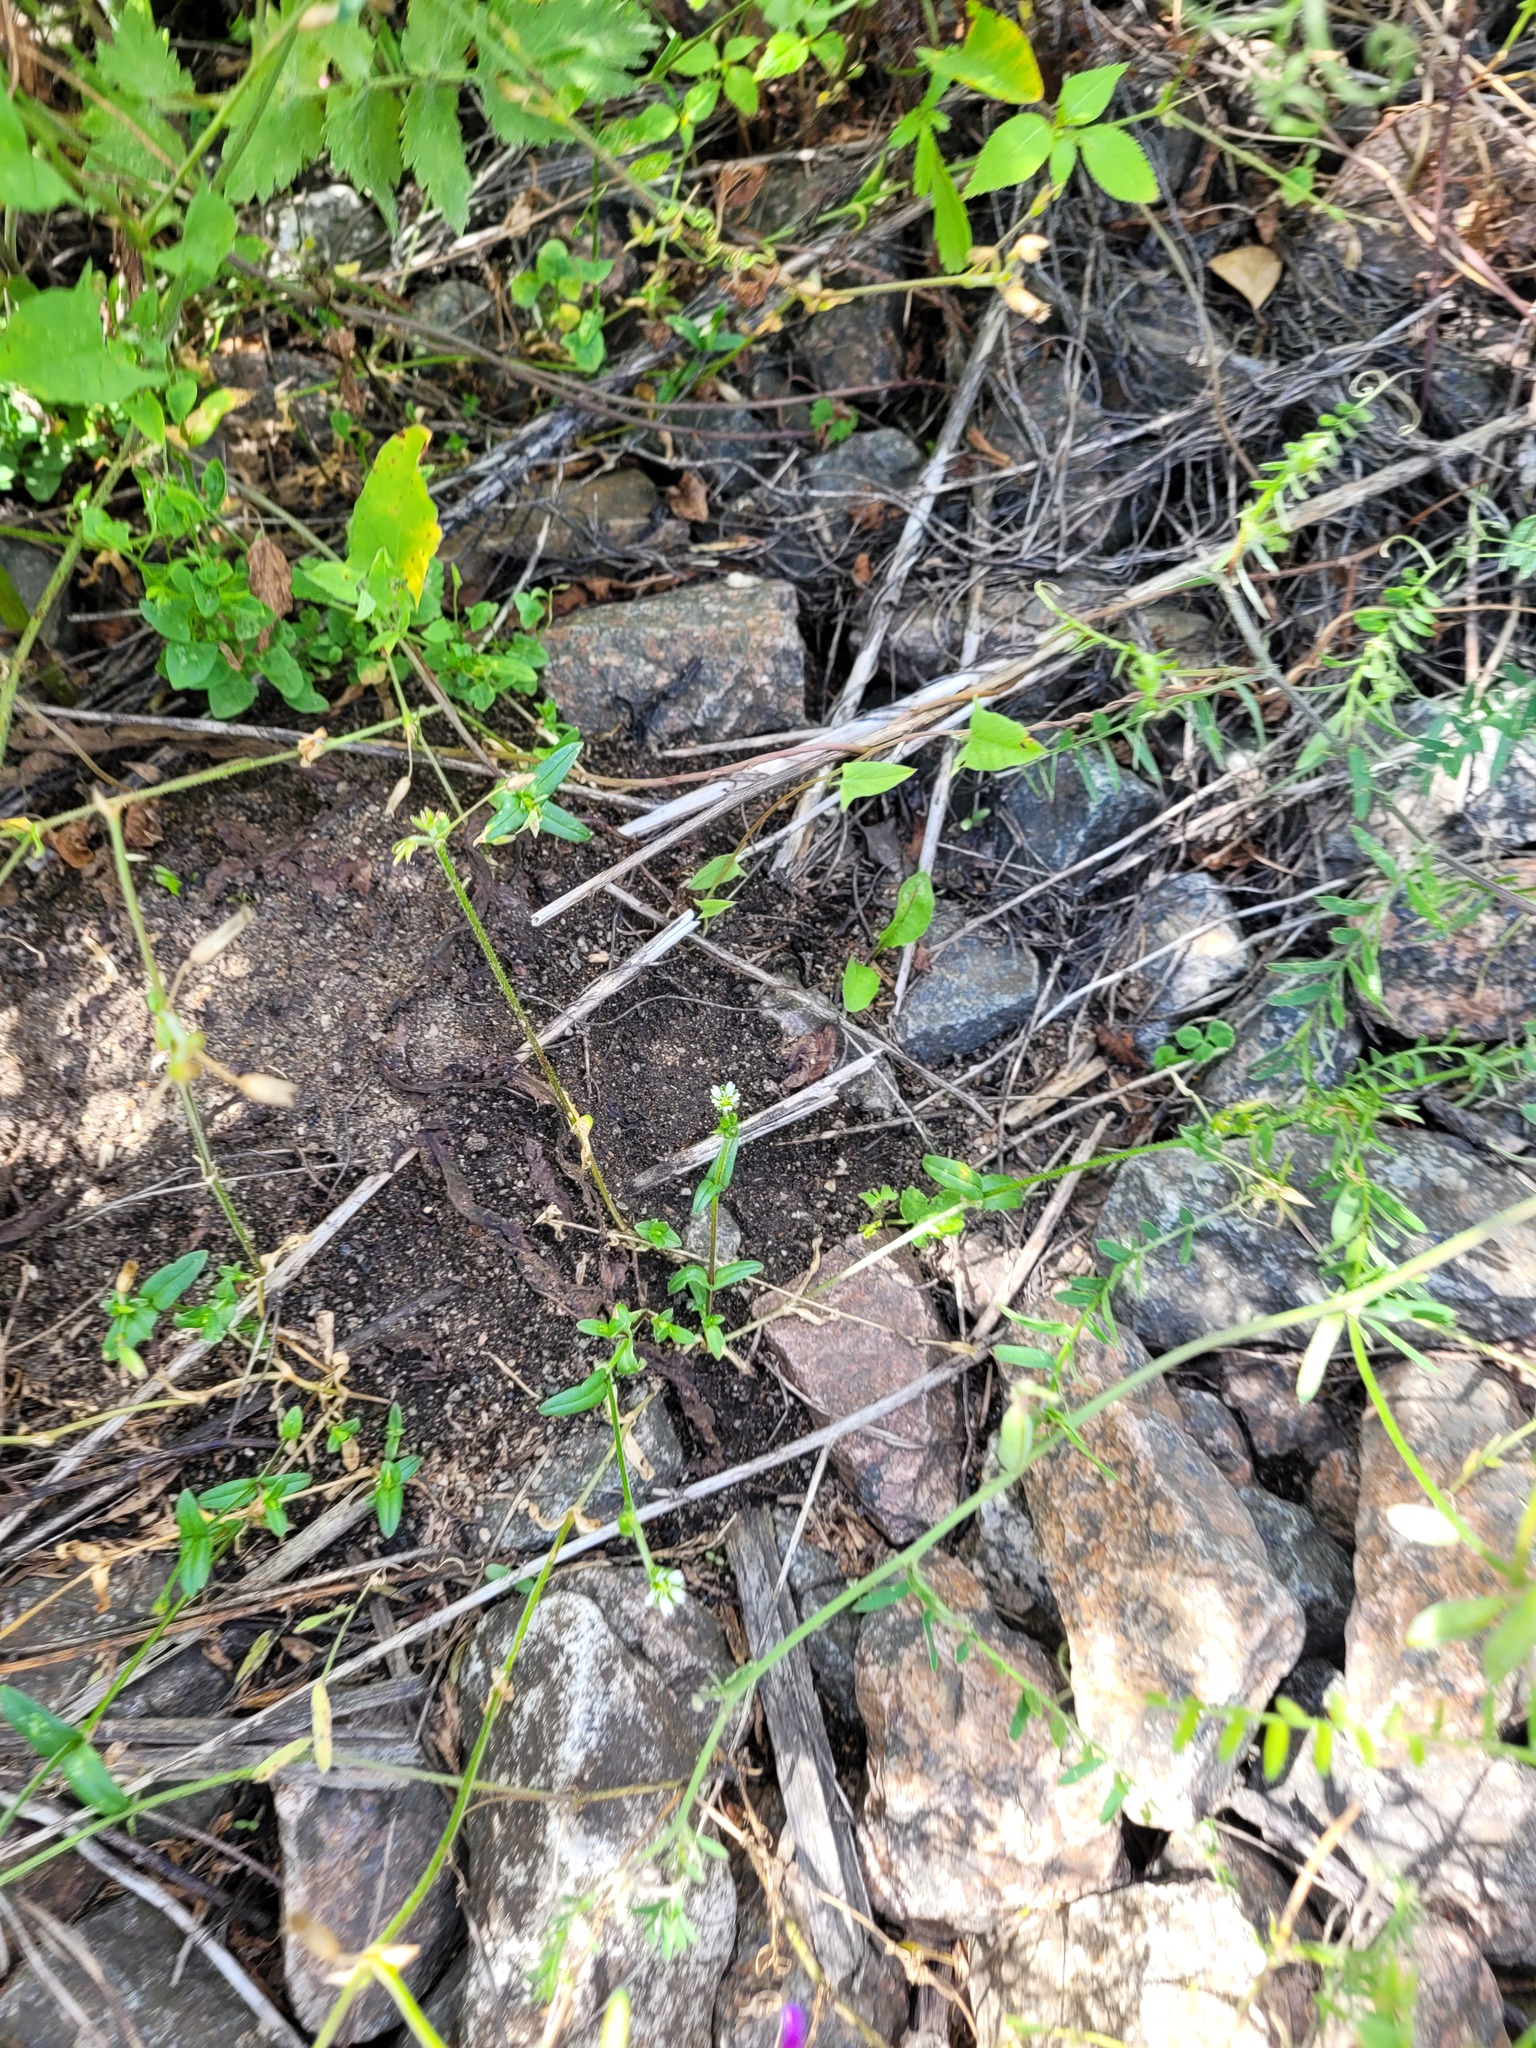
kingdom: Plantae
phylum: Tracheophyta
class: Magnoliopsida
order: Caryophyllales
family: Caryophyllaceae
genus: Cerastium
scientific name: Cerastium holosteoides
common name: Big chickweed
